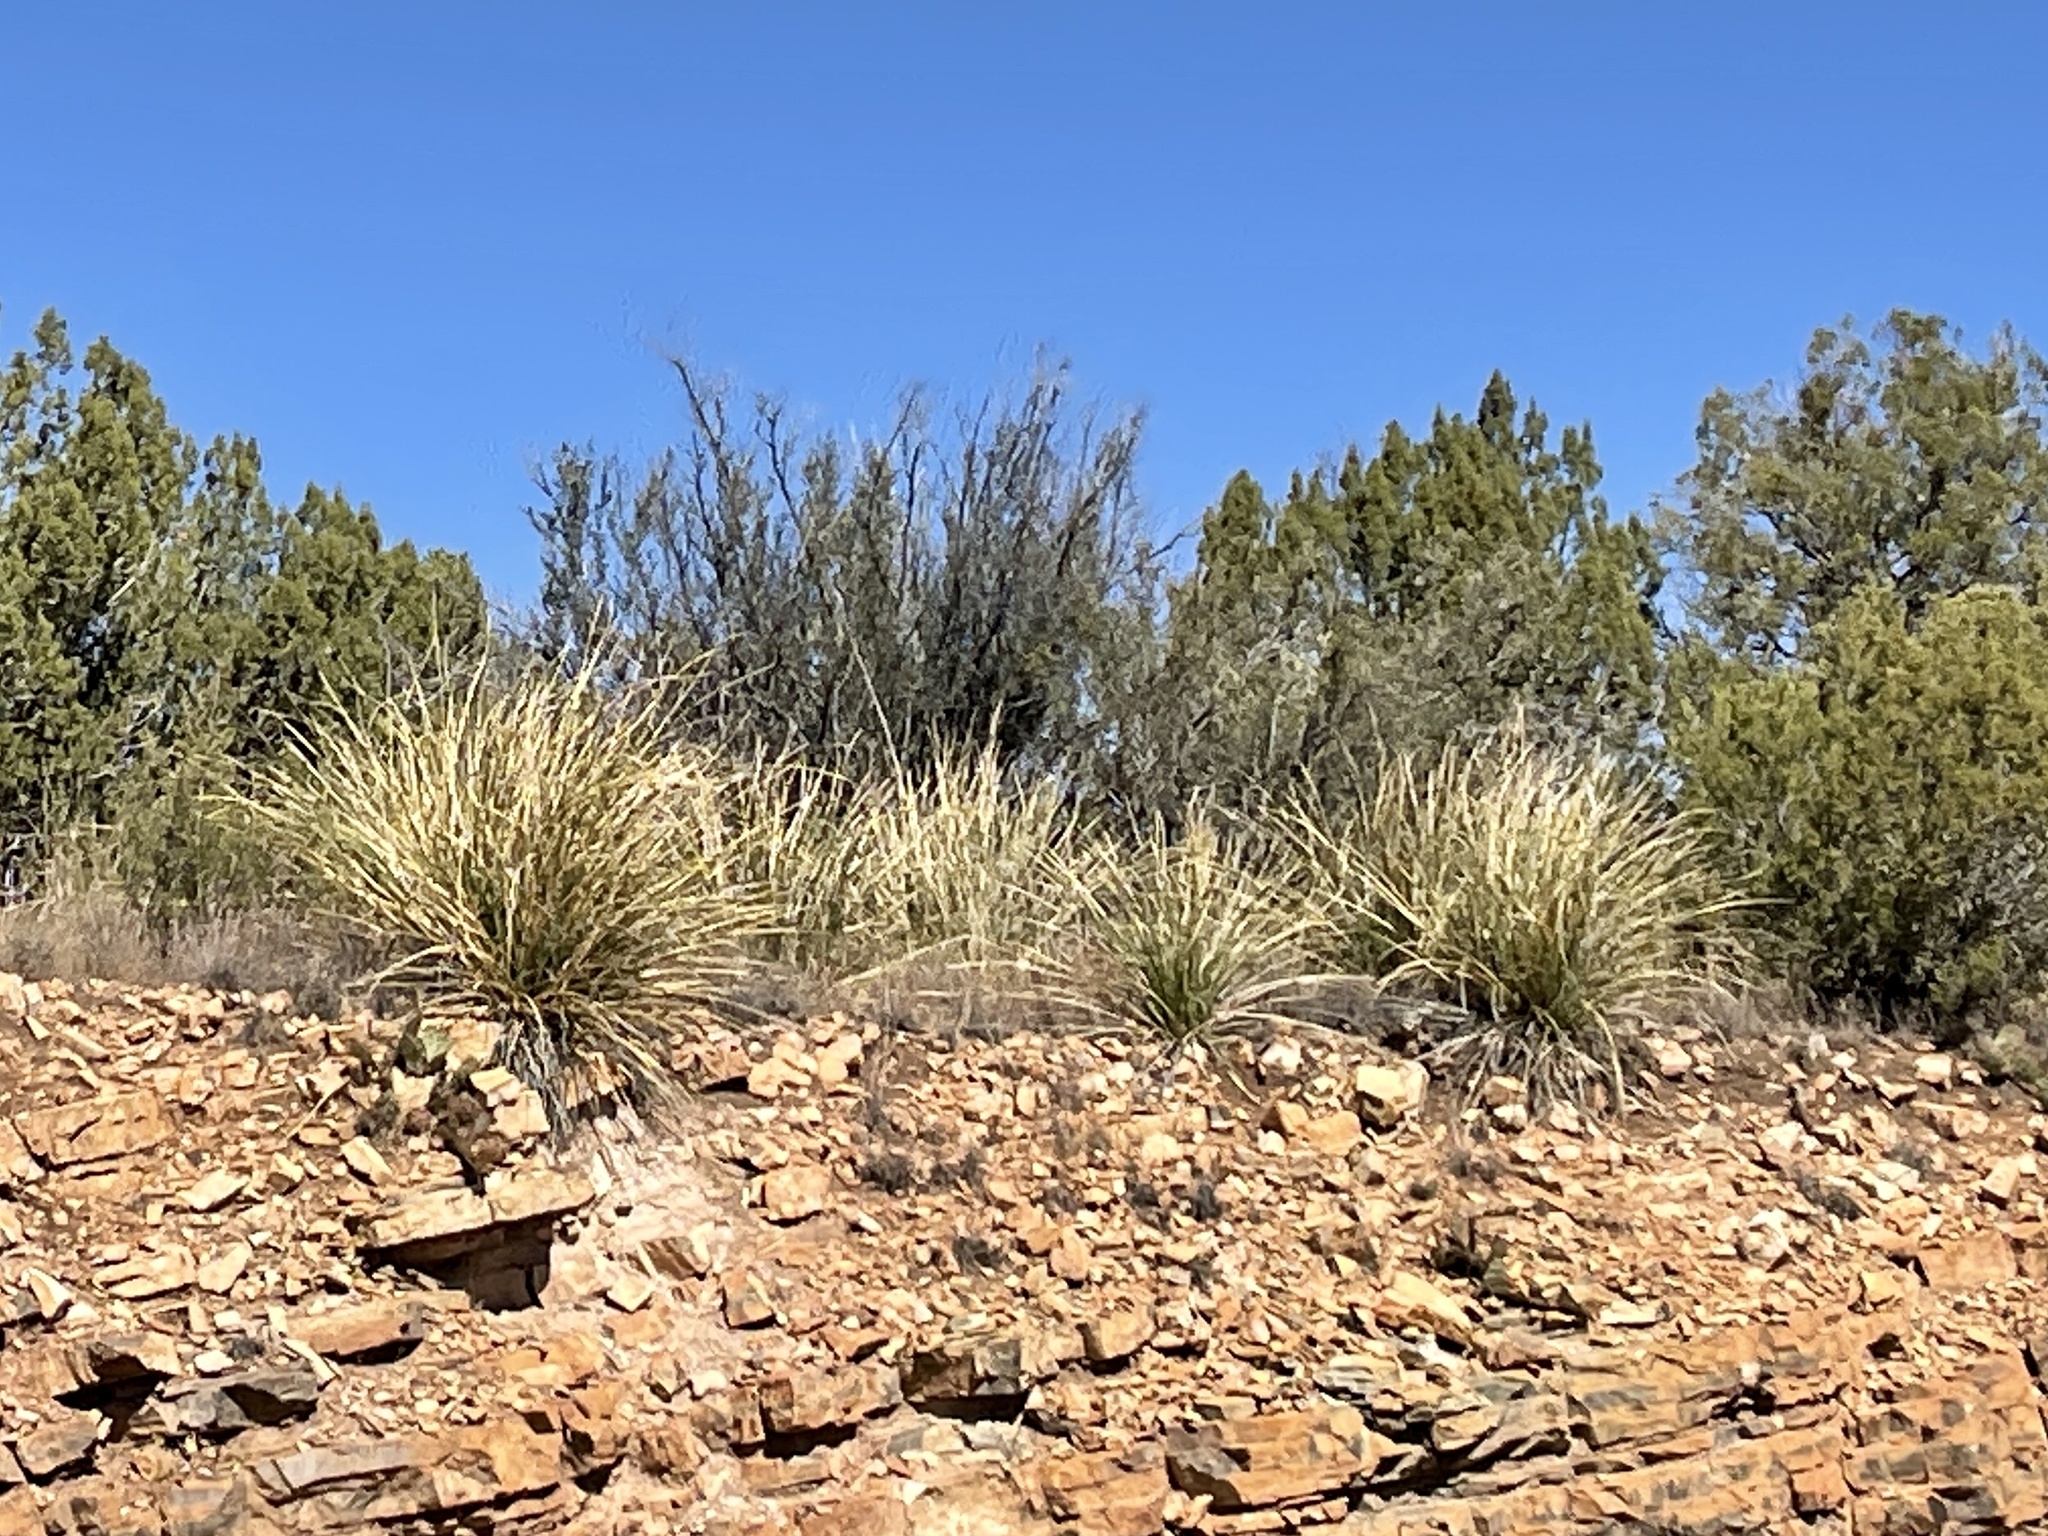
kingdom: Plantae
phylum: Tracheophyta
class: Liliopsida
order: Asparagales
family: Asparagaceae
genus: Nolina
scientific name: Nolina microcarpa
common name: Bear-grass
